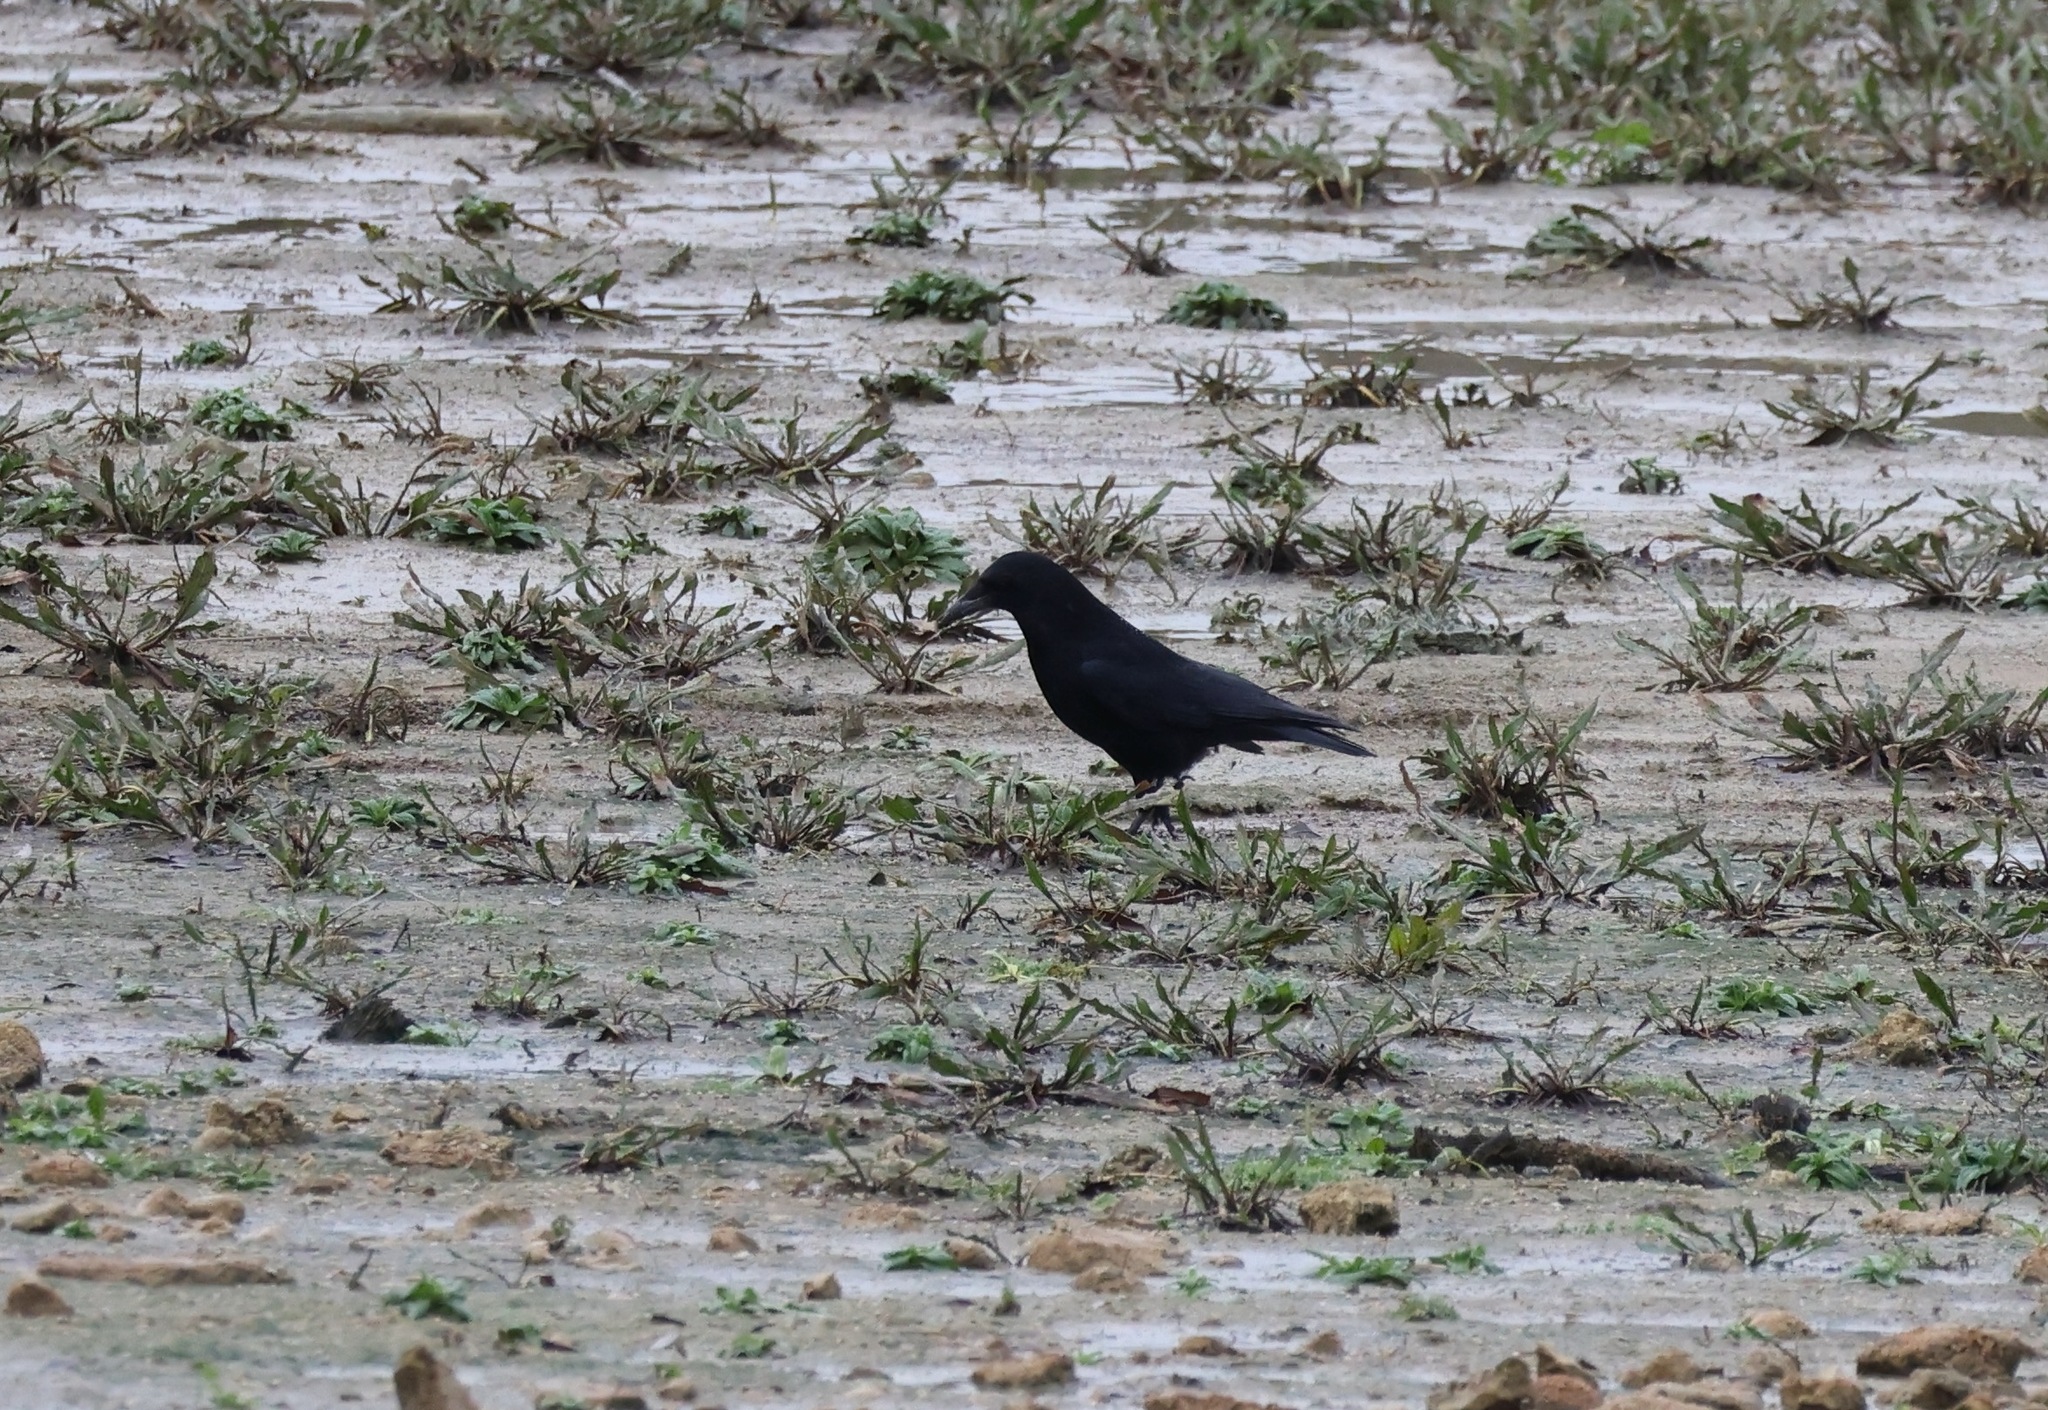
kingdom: Animalia
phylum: Chordata
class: Aves
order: Passeriformes
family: Corvidae
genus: Corvus
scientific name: Corvus corone
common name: Carrion crow
